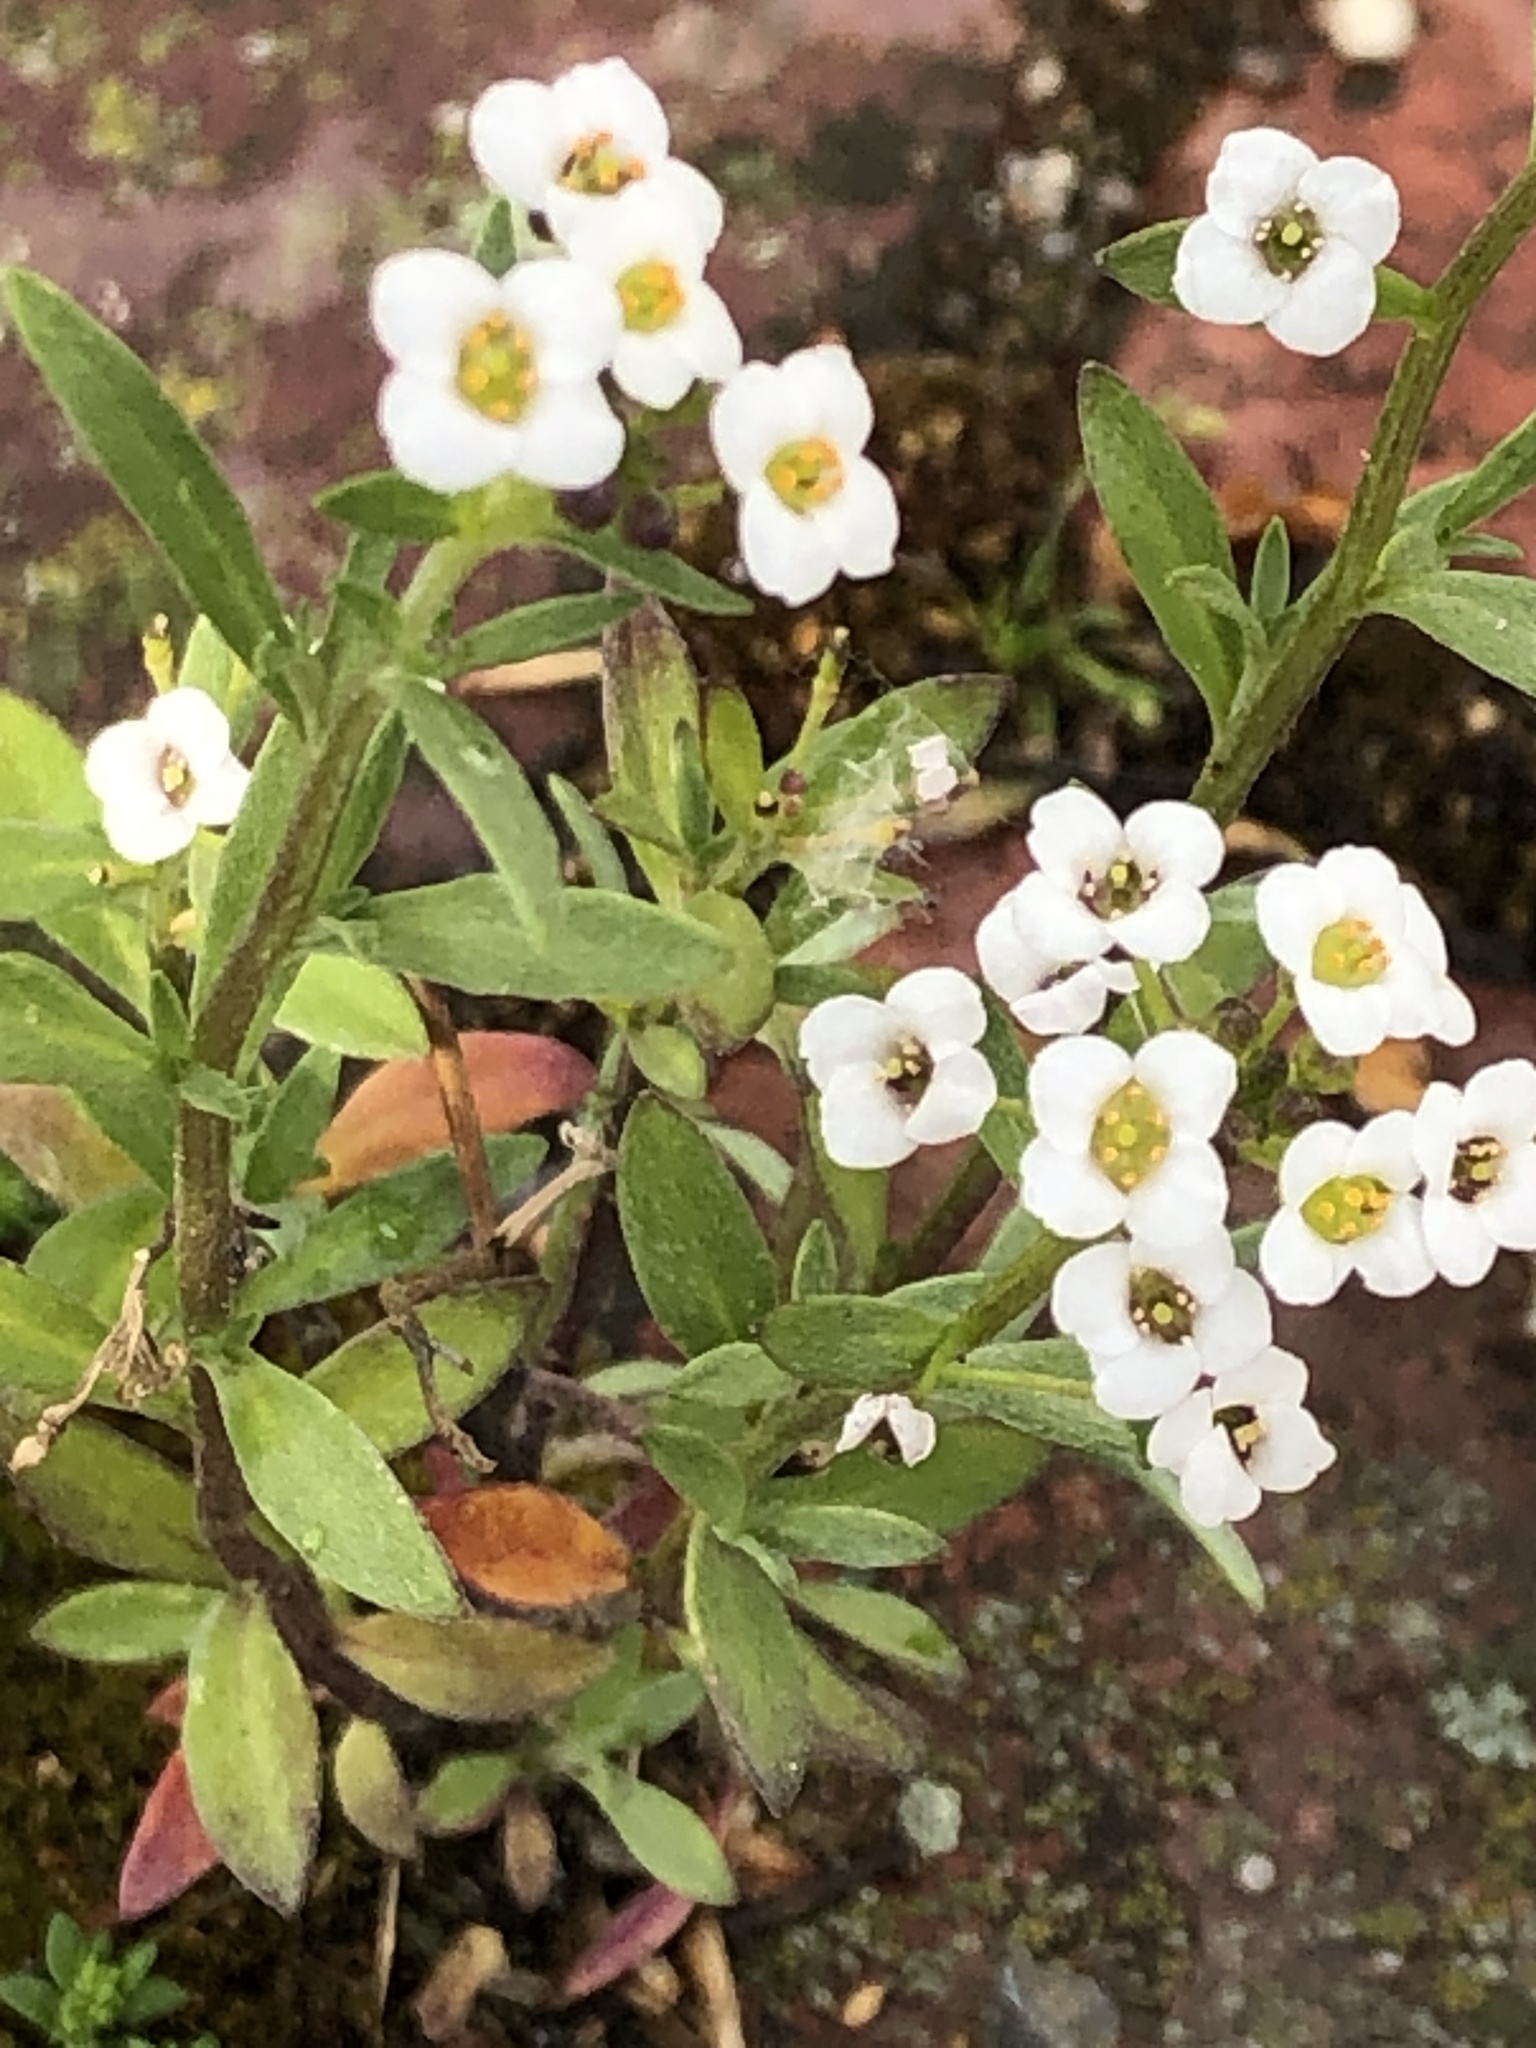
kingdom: Plantae
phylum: Tracheophyta
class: Magnoliopsida
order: Brassicales
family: Brassicaceae
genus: Lobularia
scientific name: Lobularia maritima
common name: Sweet alison
